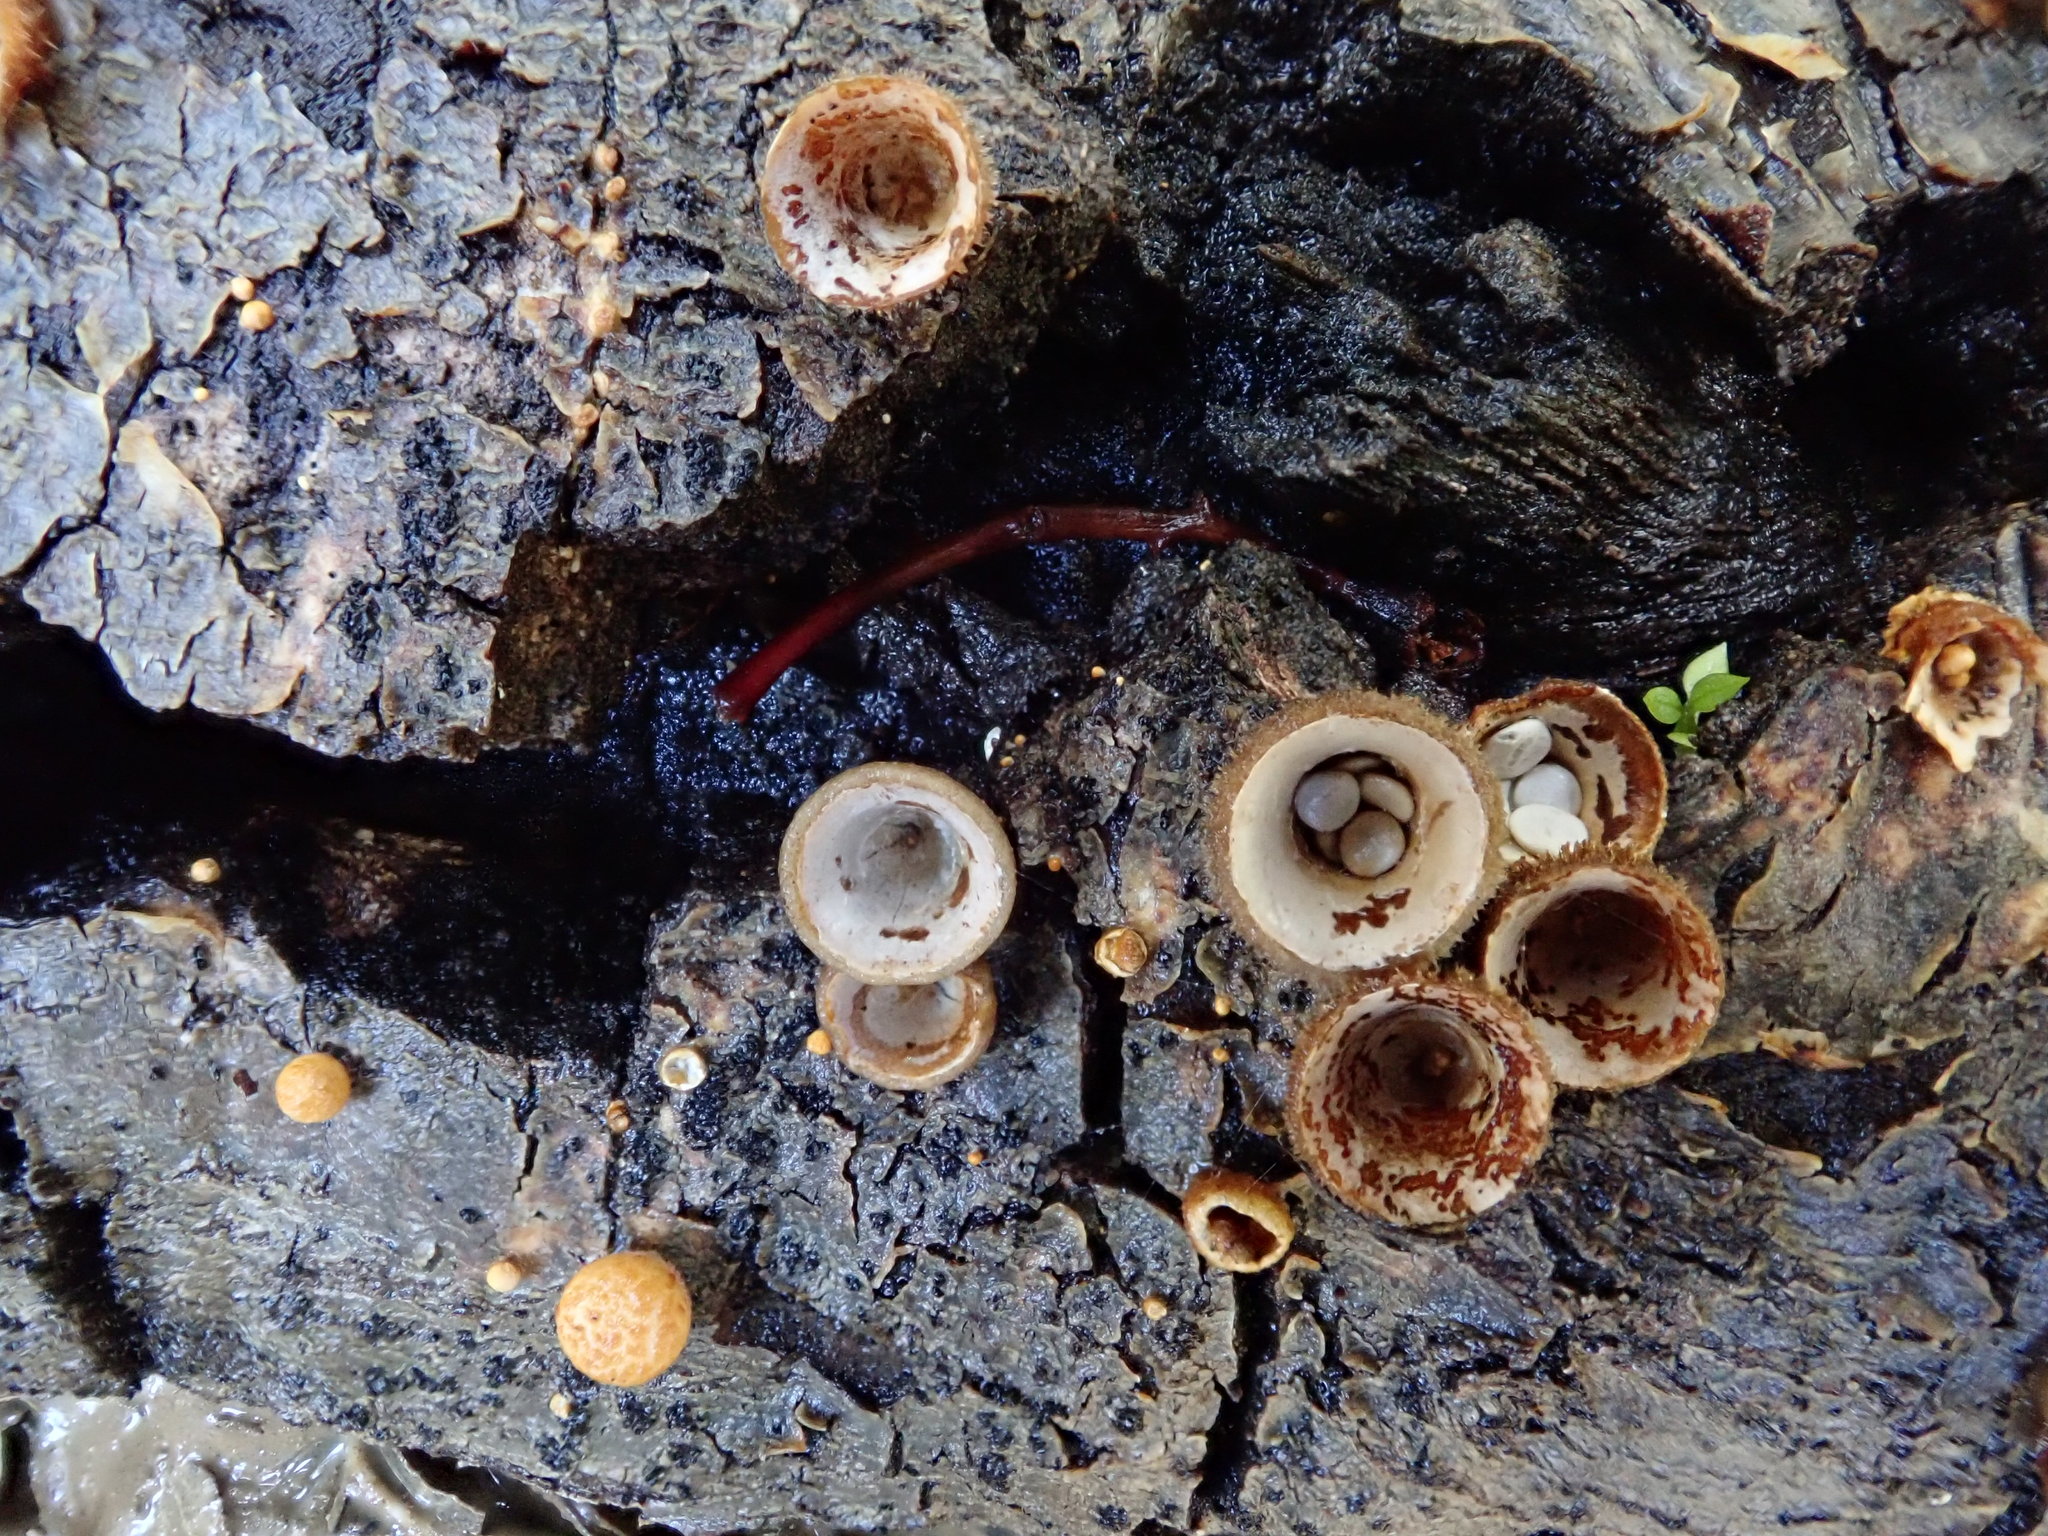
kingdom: Fungi
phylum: Basidiomycota
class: Agaricomycetes
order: Agaricales
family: Nidulariaceae
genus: Crucibulum
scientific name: Crucibulum laeve
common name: Common bird's nest
